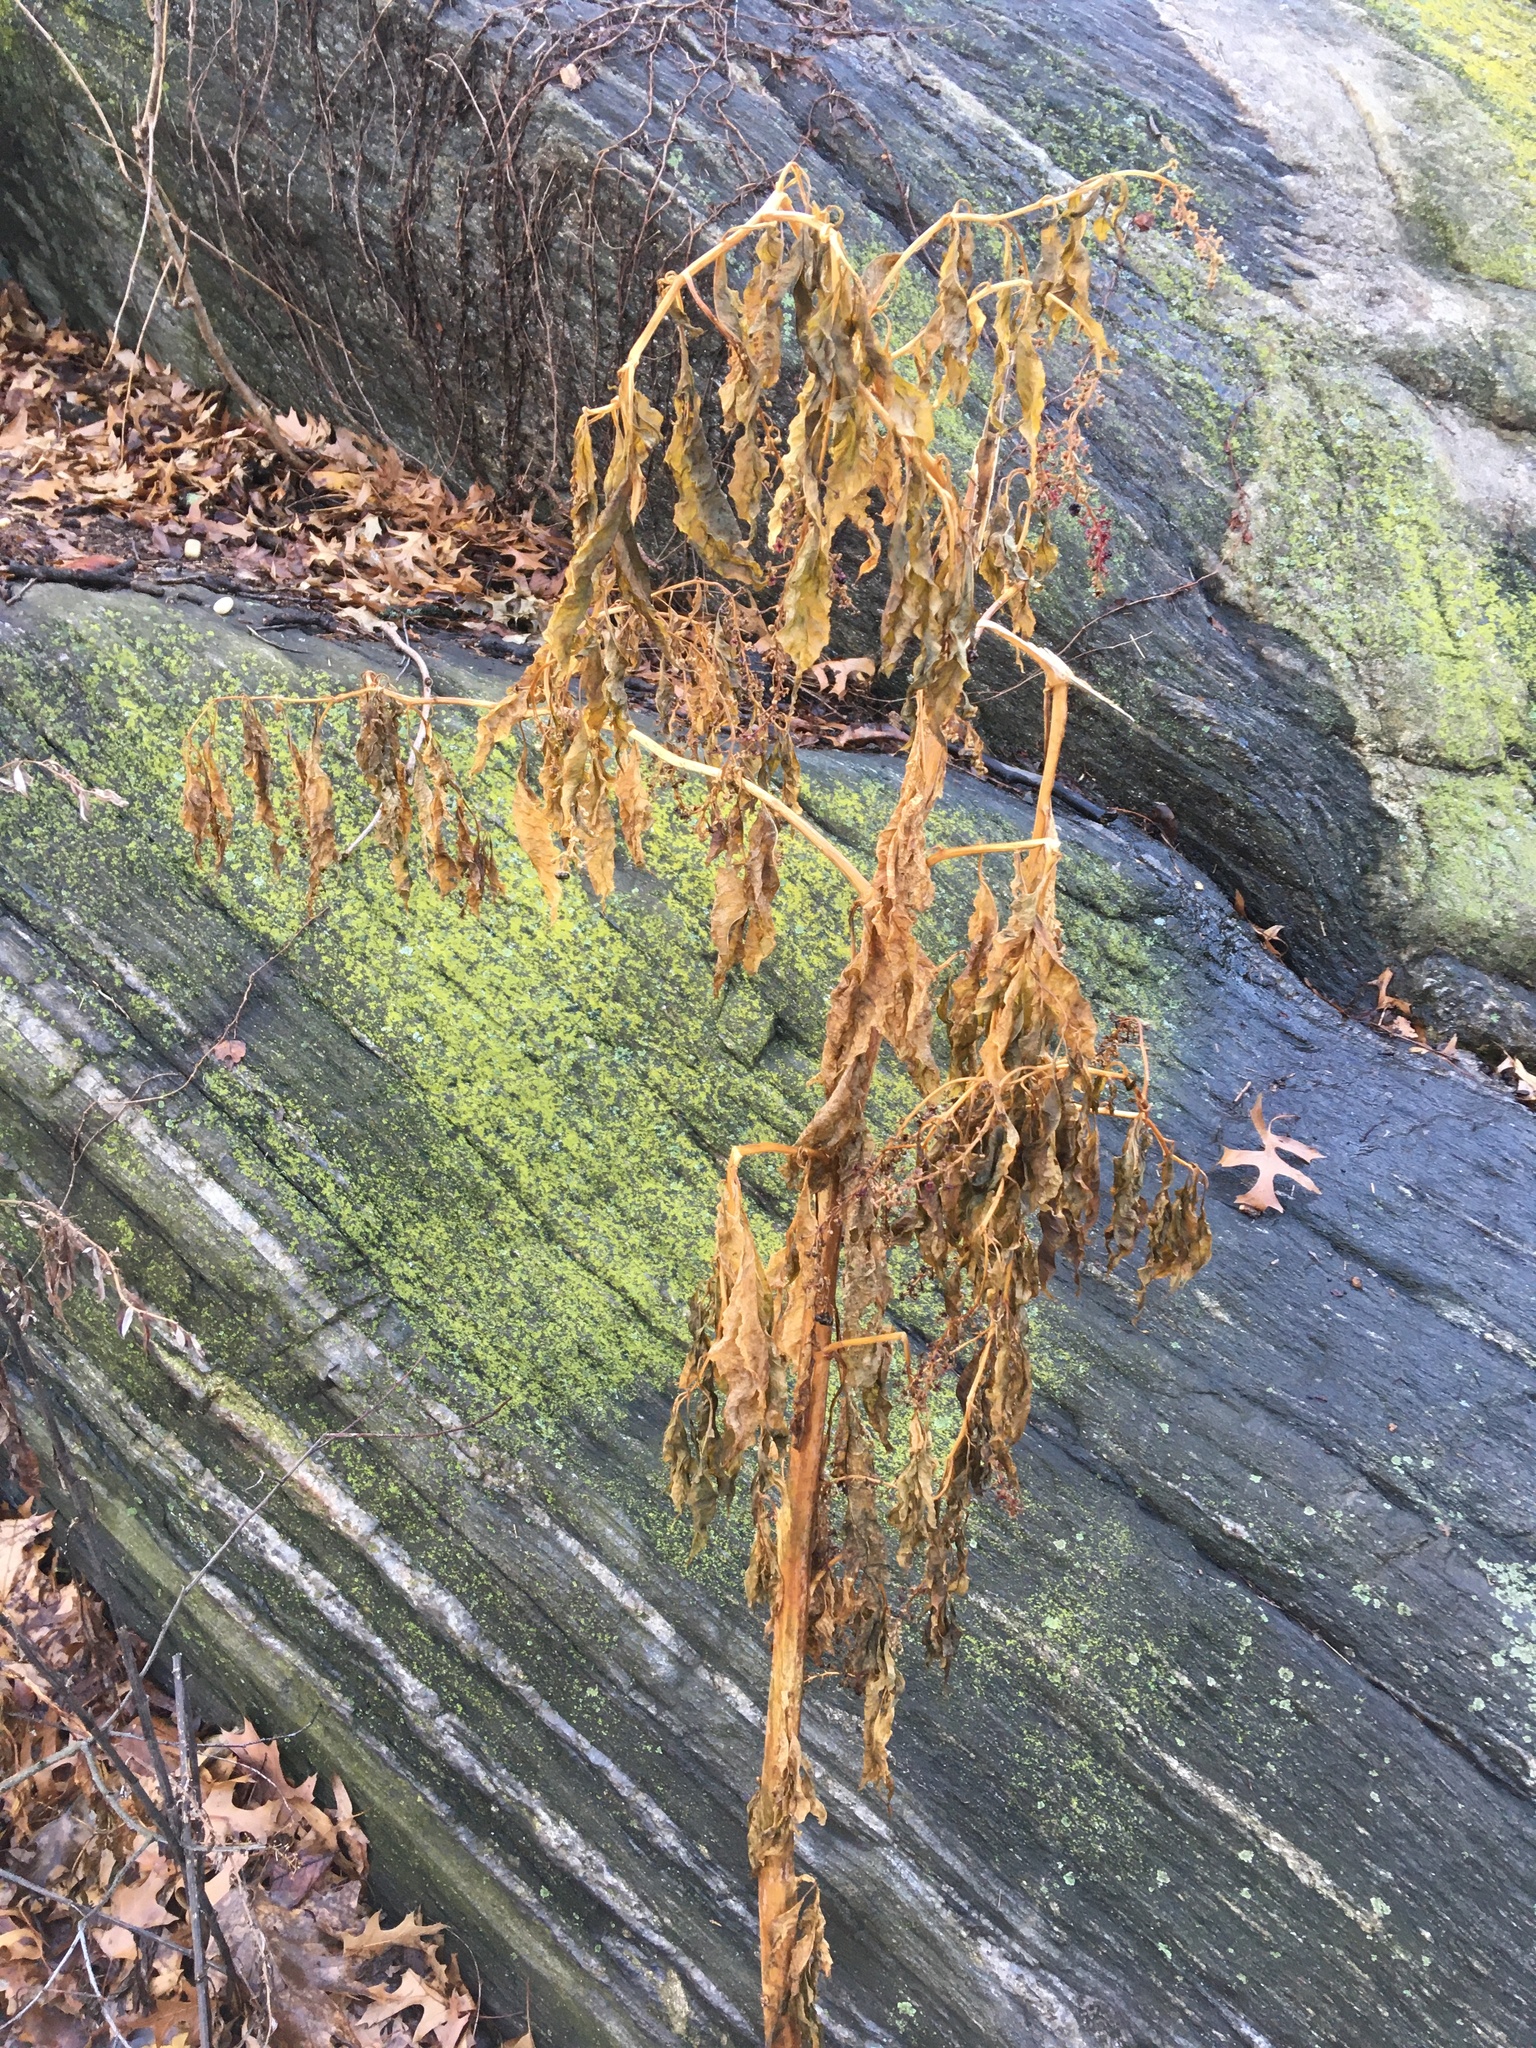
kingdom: Plantae
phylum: Tracheophyta
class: Magnoliopsida
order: Caryophyllales
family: Phytolaccaceae
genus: Phytolacca
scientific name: Phytolacca americana
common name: American pokeweed
